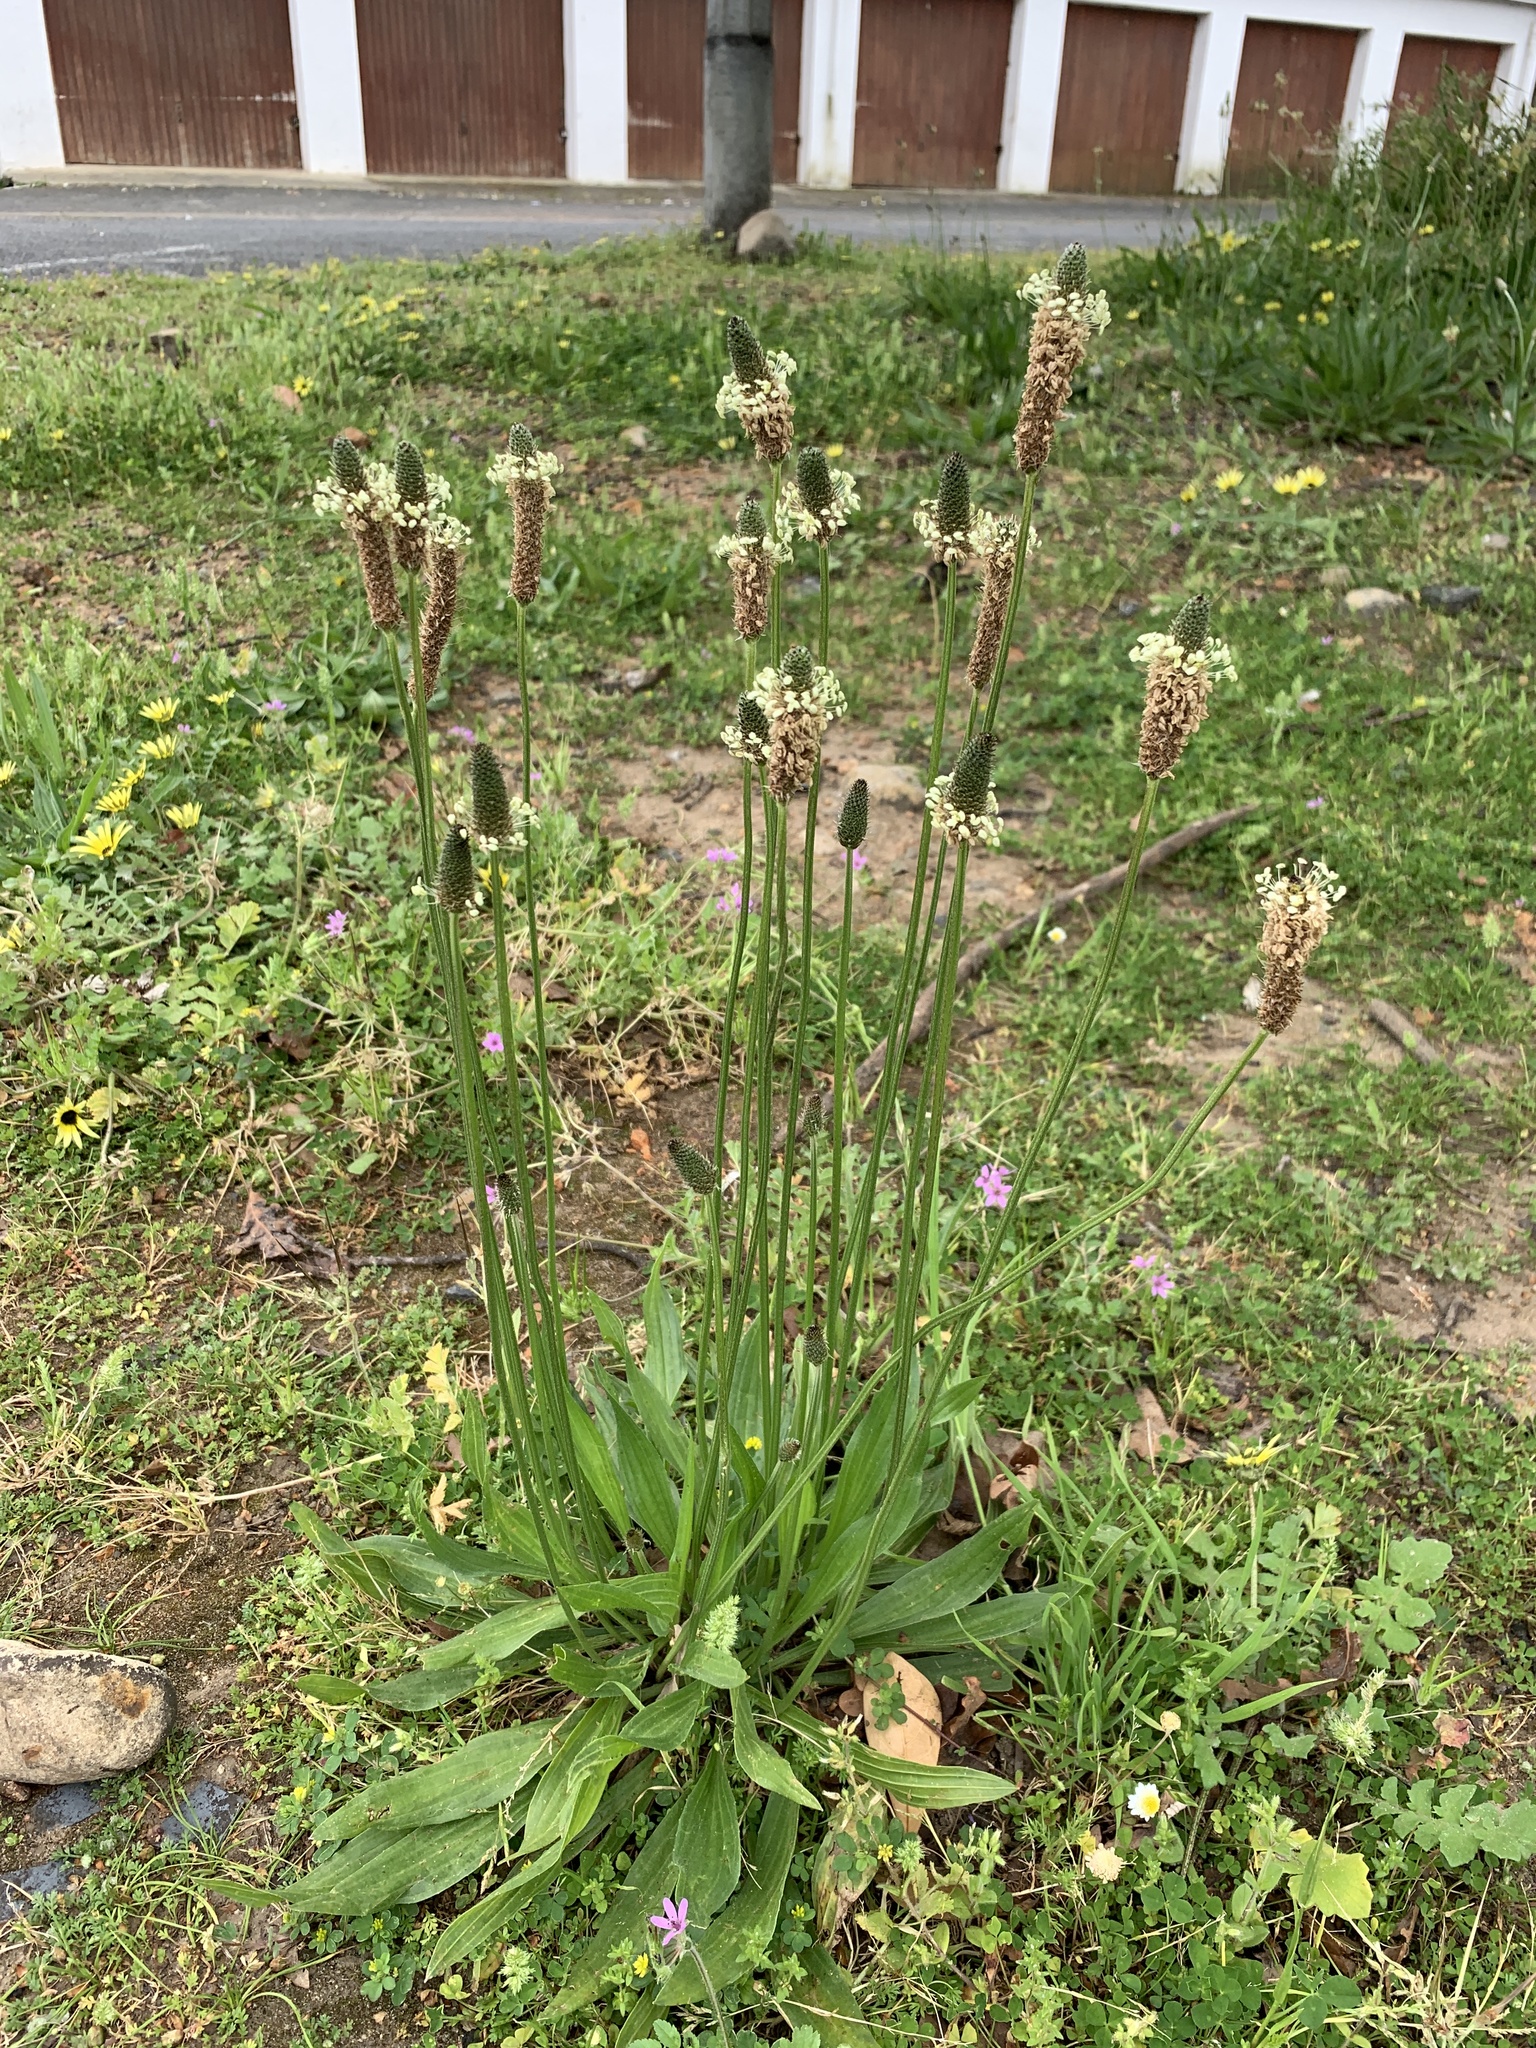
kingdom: Plantae
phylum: Tracheophyta
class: Magnoliopsida
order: Lamiales
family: Plantaginaceae
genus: Plantago
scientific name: Plantago lanceolata
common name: Ribwort plantain
